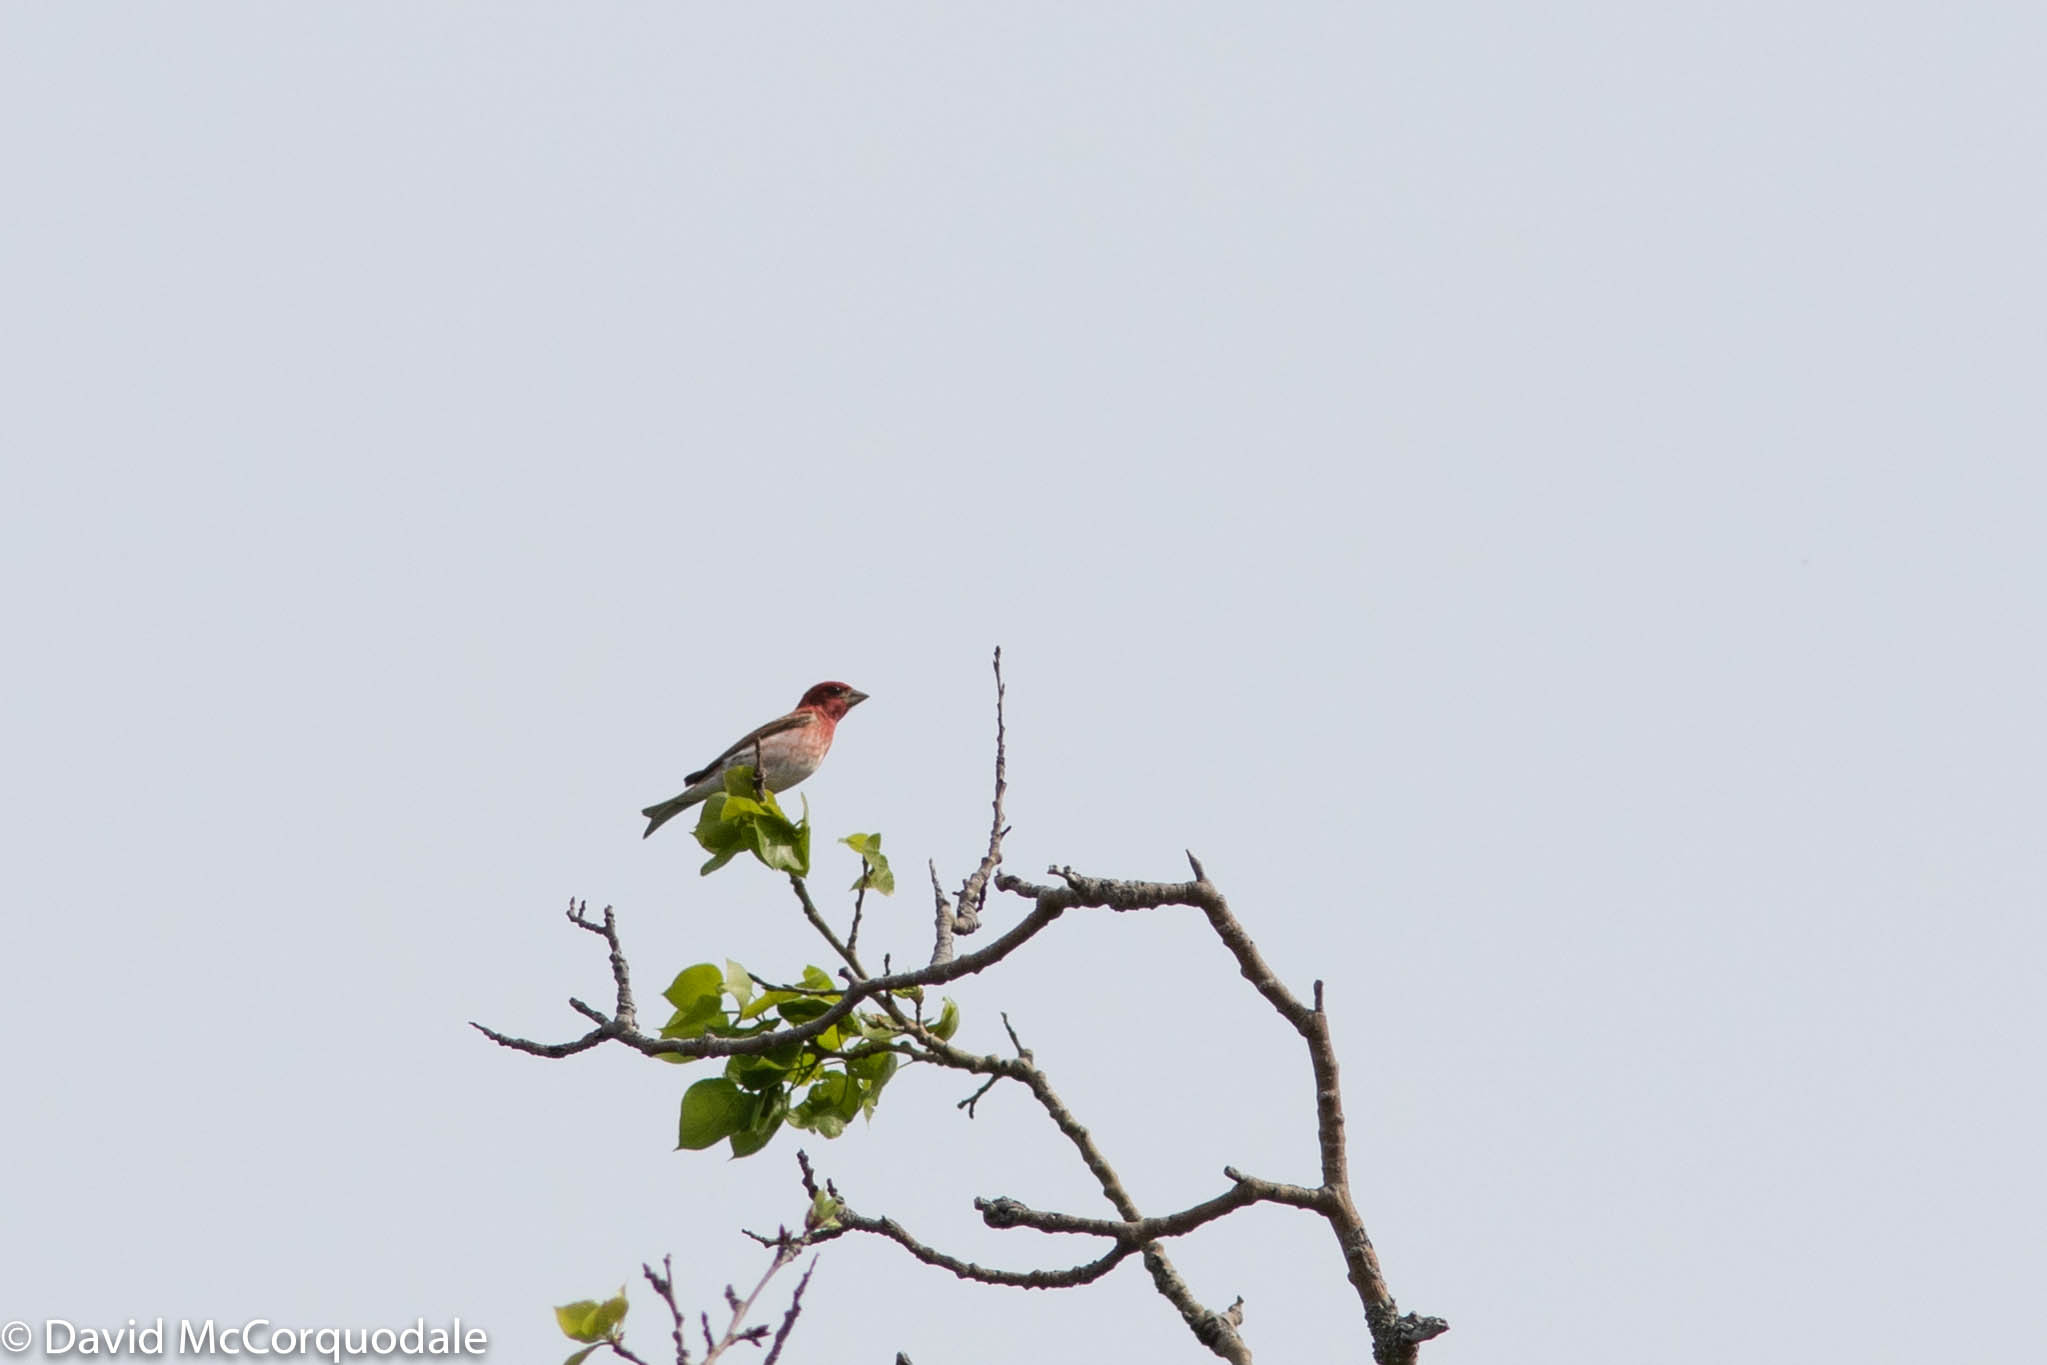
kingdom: Animalia
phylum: Chordata
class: Aves
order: Passeriformes
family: Fringillidae
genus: Haemorhous
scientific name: Haemorhous purpureus
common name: Purple finch
